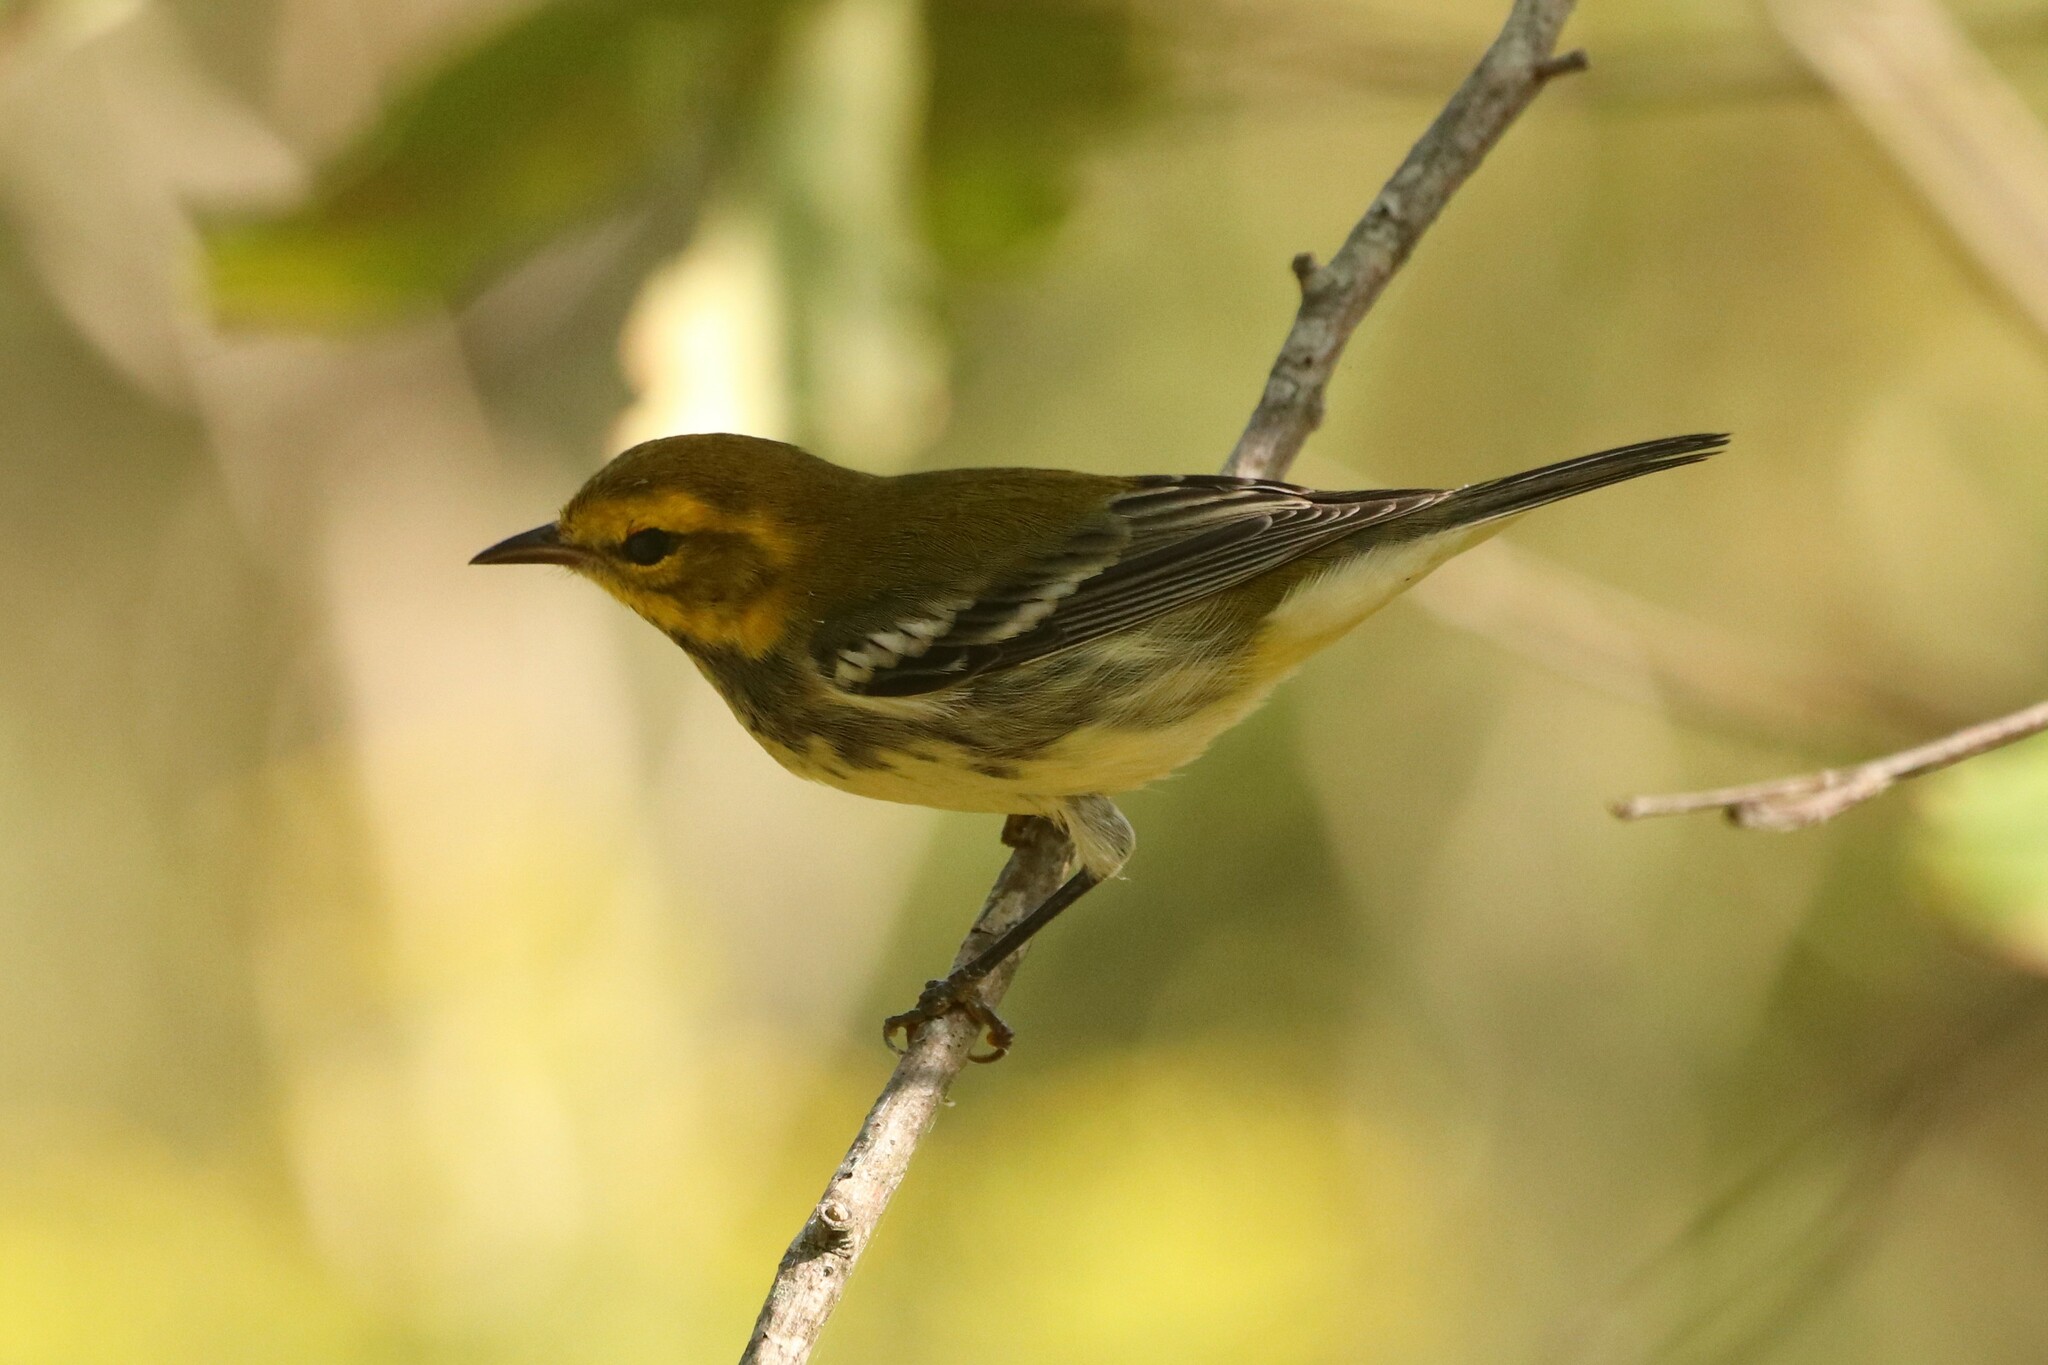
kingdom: Animalia
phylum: Chordata
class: Aves
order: Passeriformes
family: Parulidae
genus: Setophaga
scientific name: Setophaga virens
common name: Black-throated green warbler
